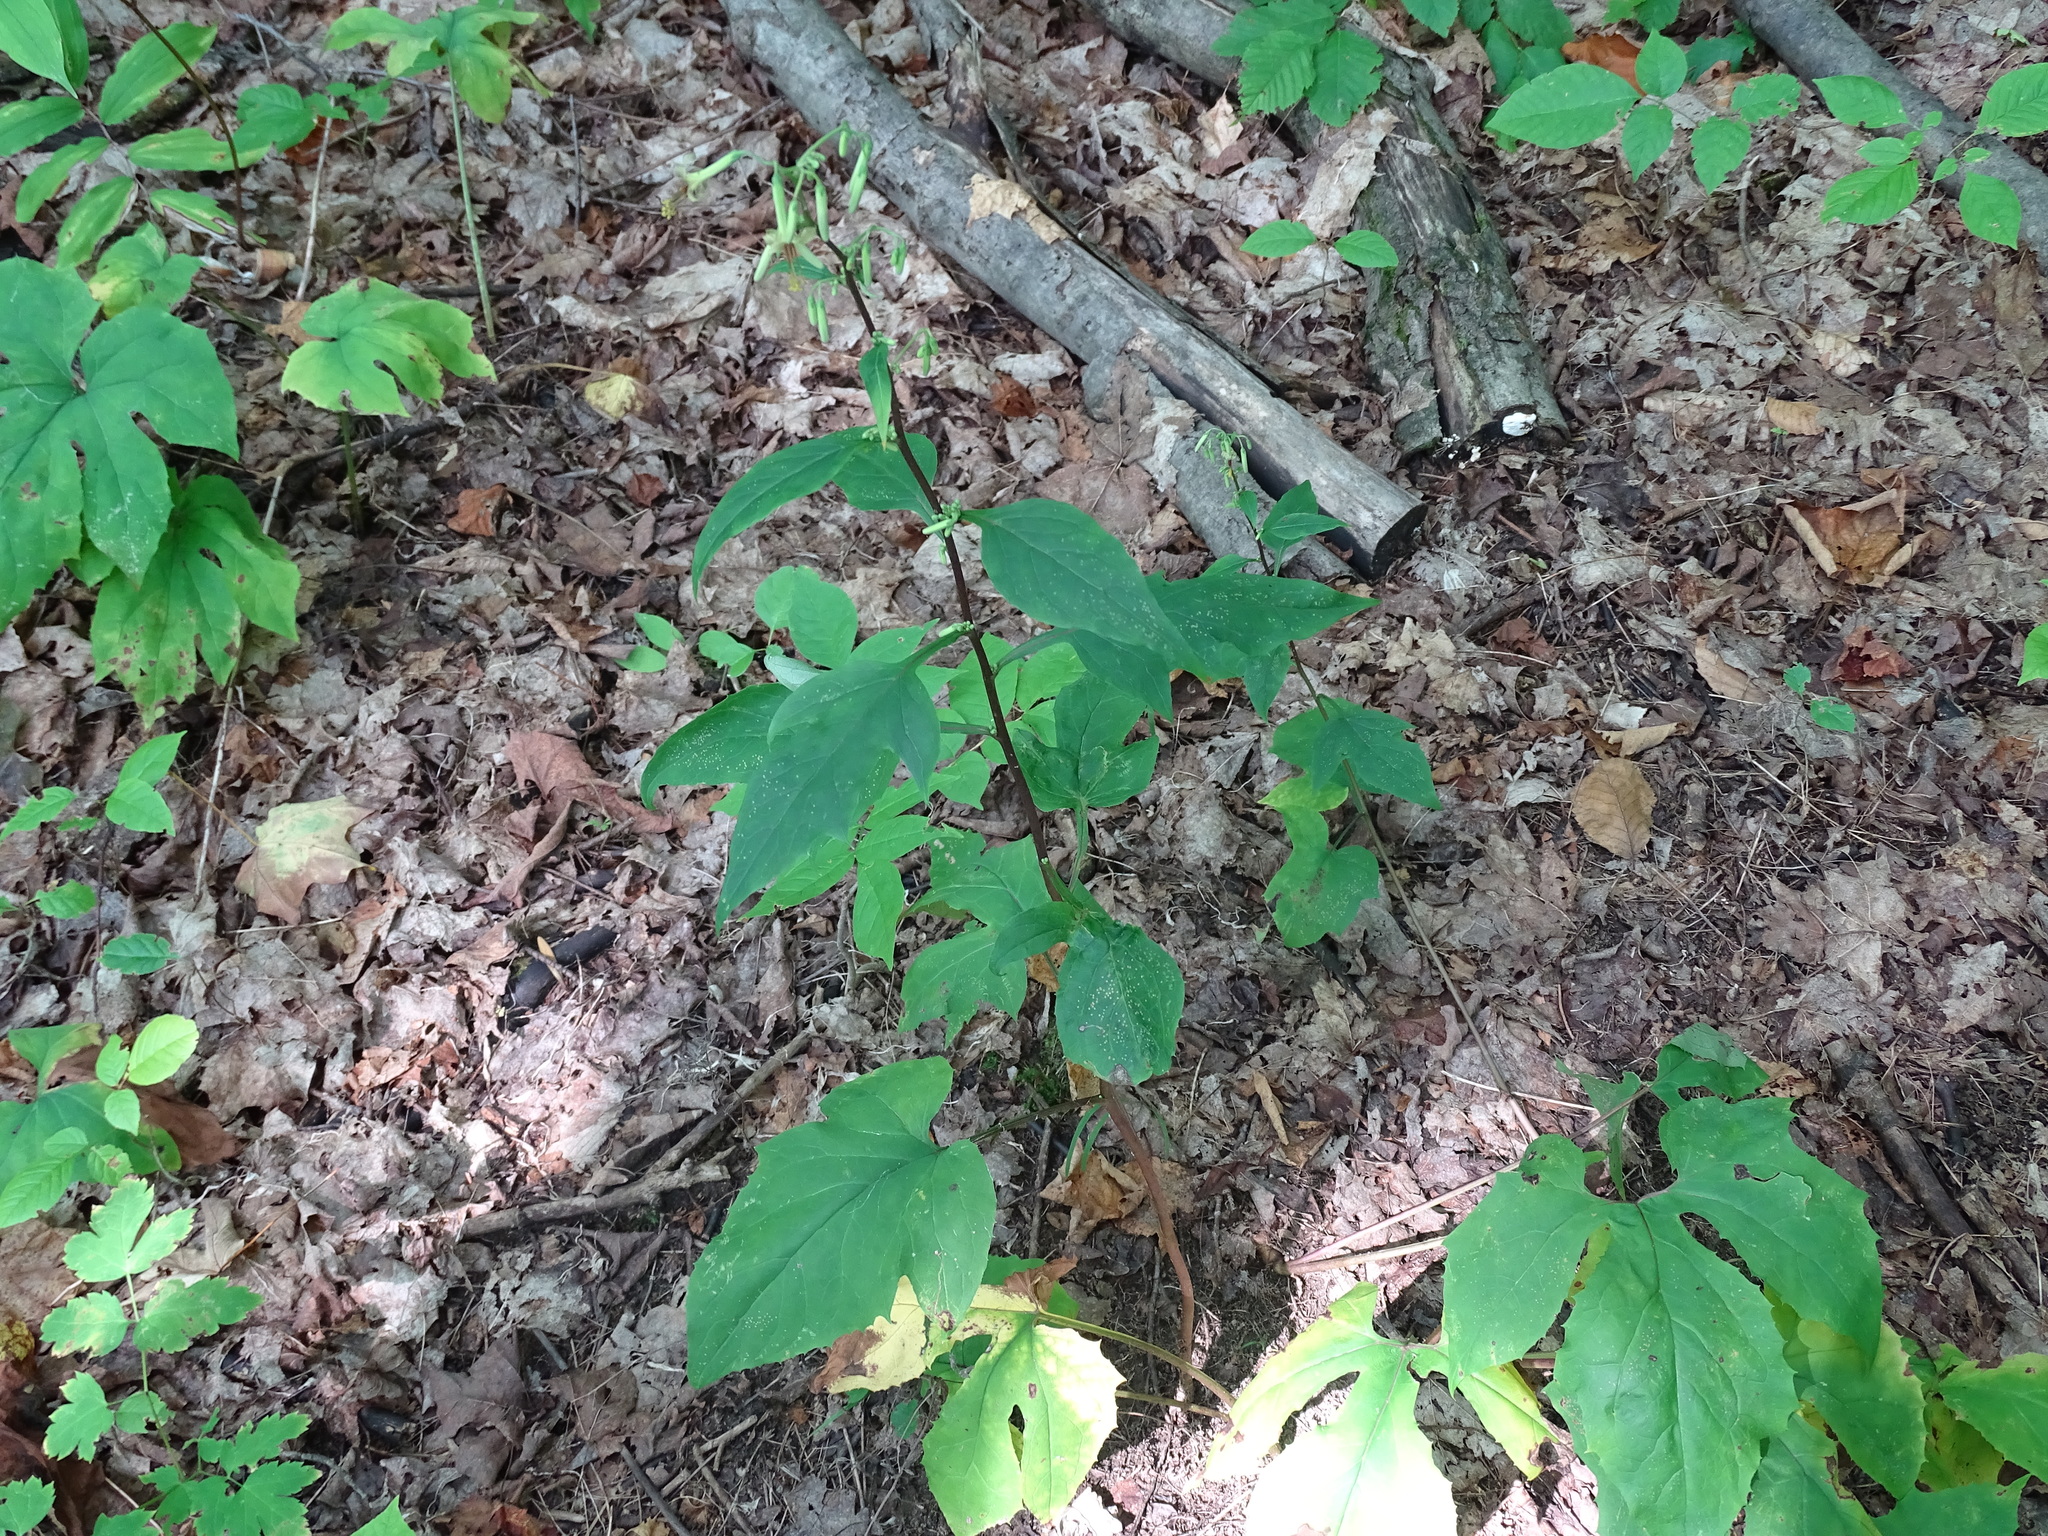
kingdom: Plantae
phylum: Tracheophyta
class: Magnoliopsida
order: Asterales
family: Asteraceae
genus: Nabalus
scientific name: Nabalus altissima
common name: Tall rattlesnakeroot
